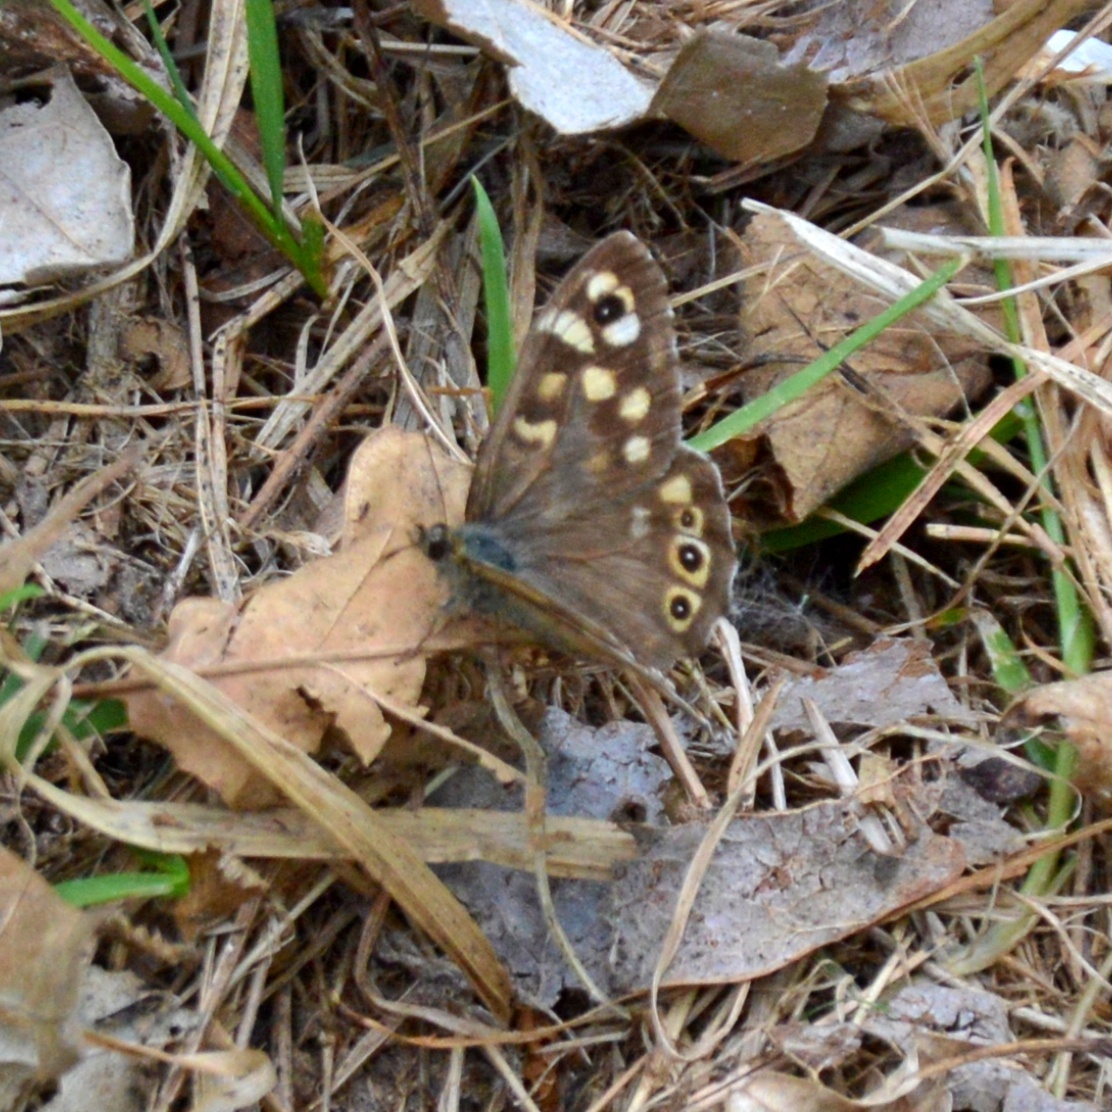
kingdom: Animalia
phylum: Arthropoda
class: Insecta
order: Lepidoptera
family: Nymphalidae
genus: Pararge
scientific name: Pararge aegeria
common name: Speckled wood
